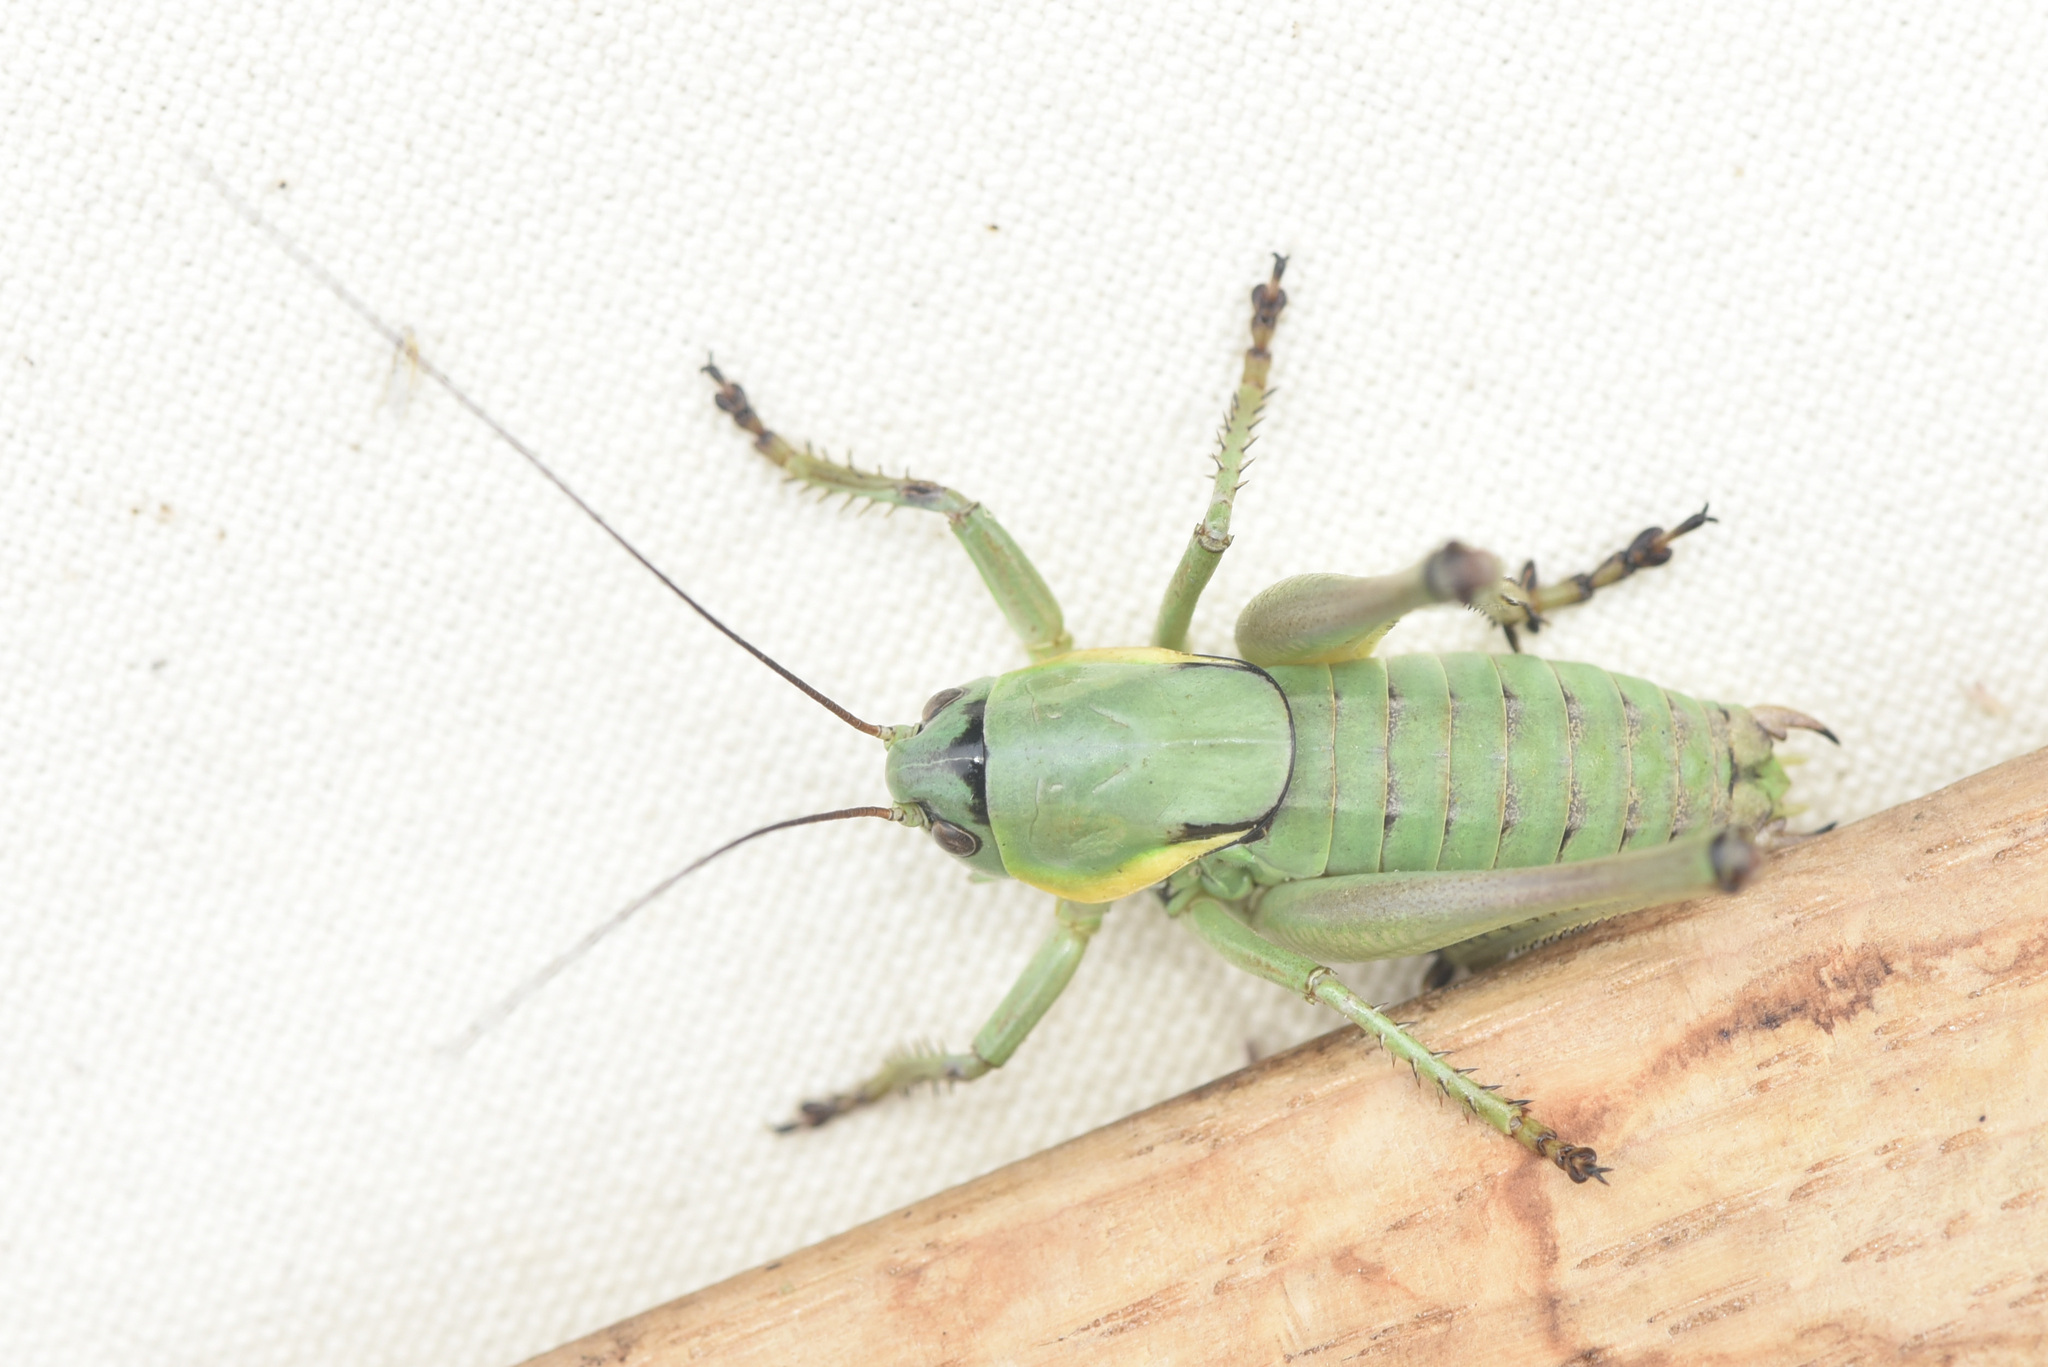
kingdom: Animalia
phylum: Arthropoda
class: Insecta
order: Orthoptera
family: Tettigoniidae
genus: Anabrus
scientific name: Anabrus longipes
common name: Long-legged anabrus
